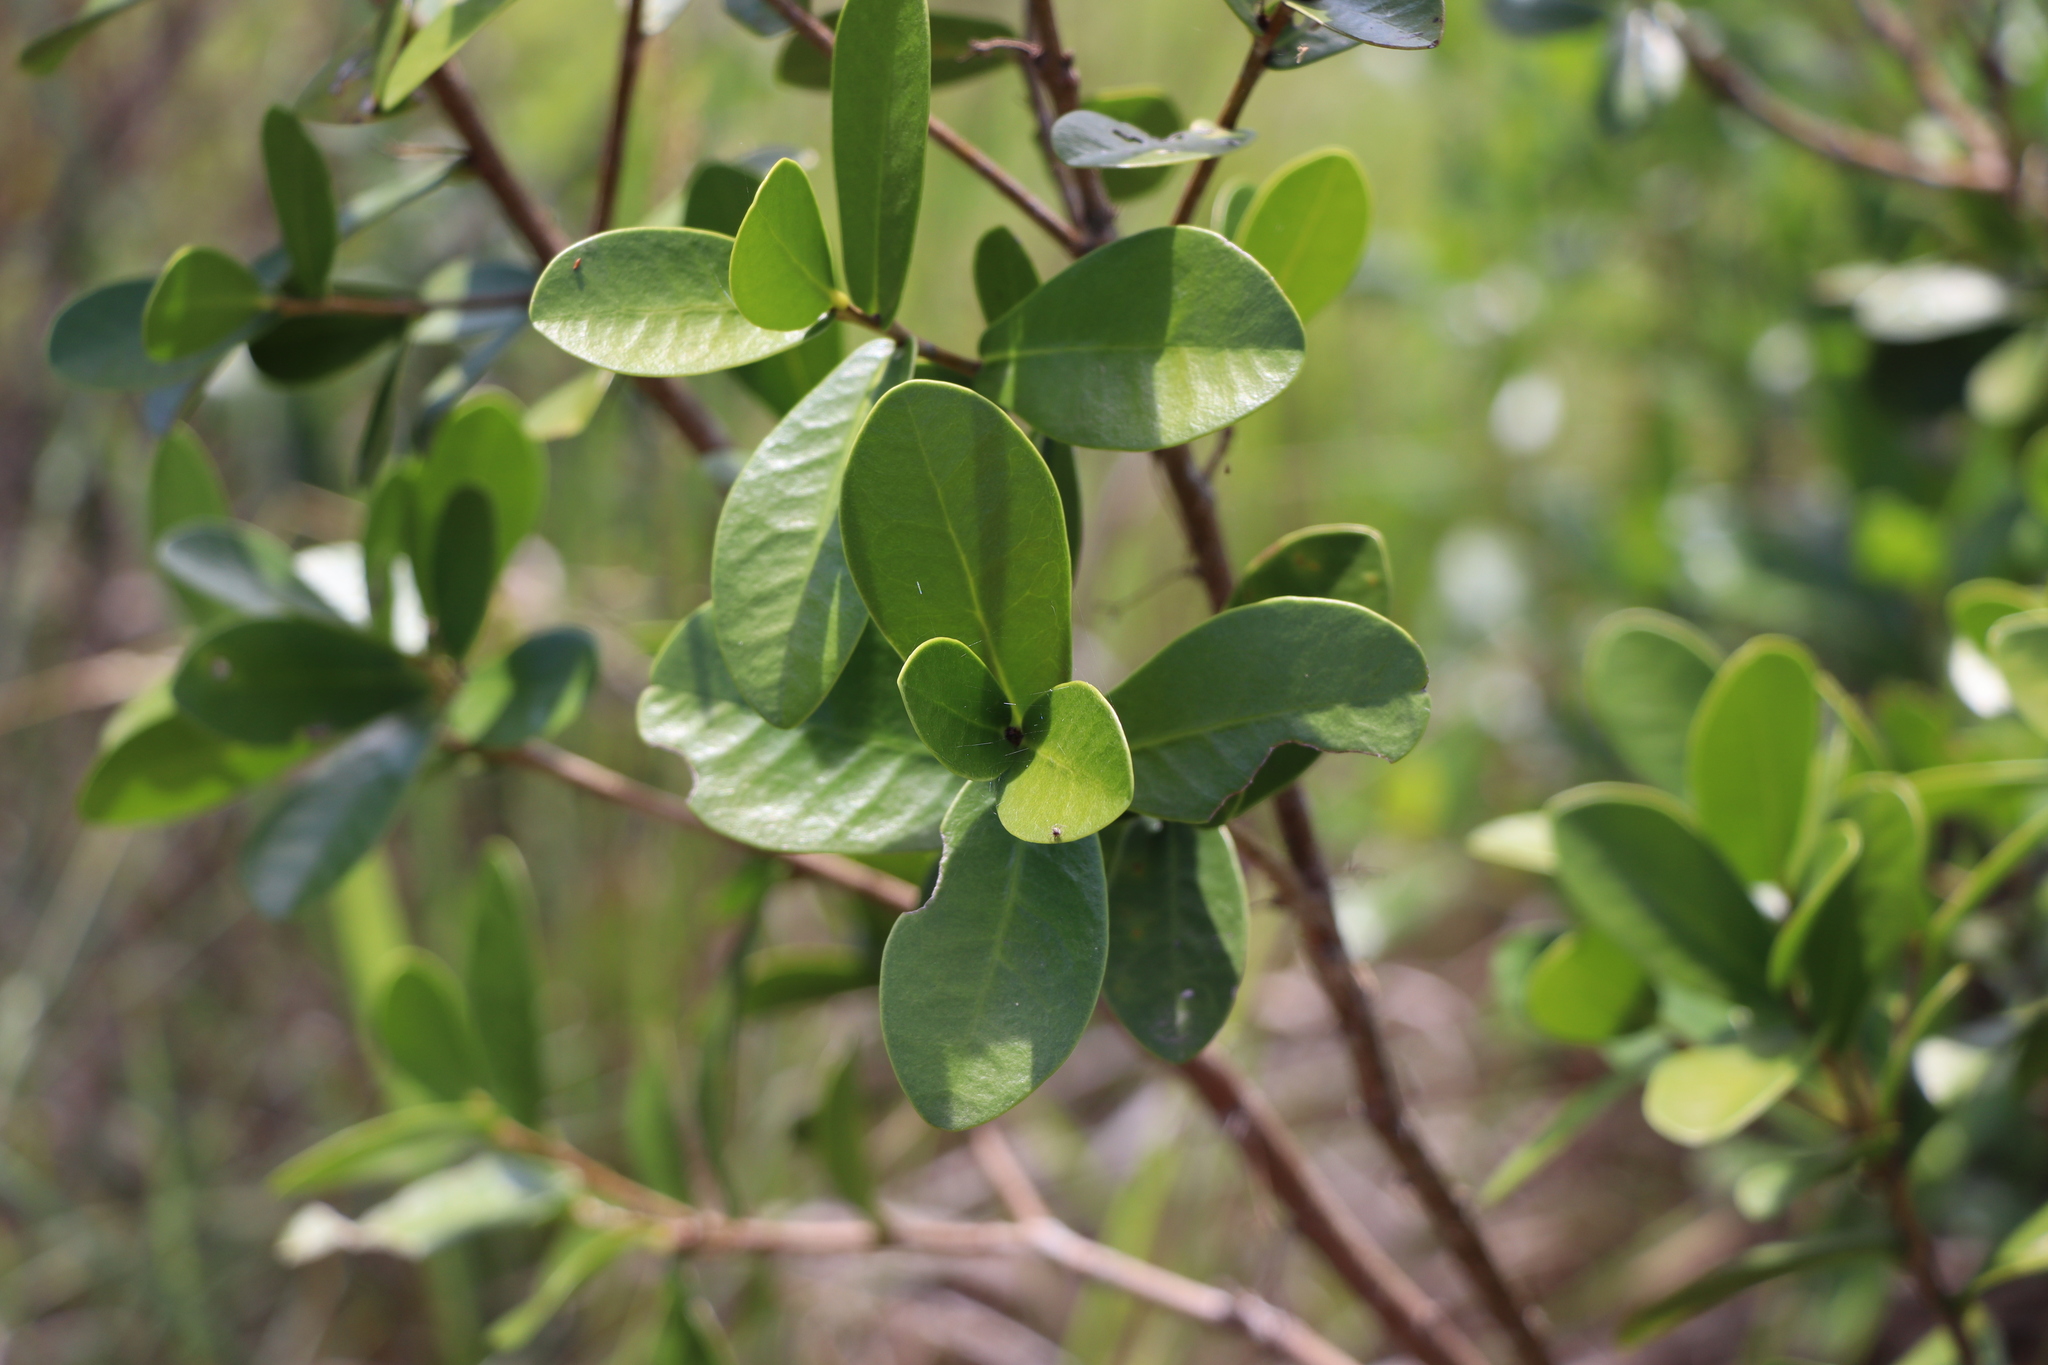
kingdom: Plantae
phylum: Tracheophyta
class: Magnoliopsida
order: Malvales
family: Thymelaeaceae
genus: Daphnopsis
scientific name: Daphnopsis racemosa
